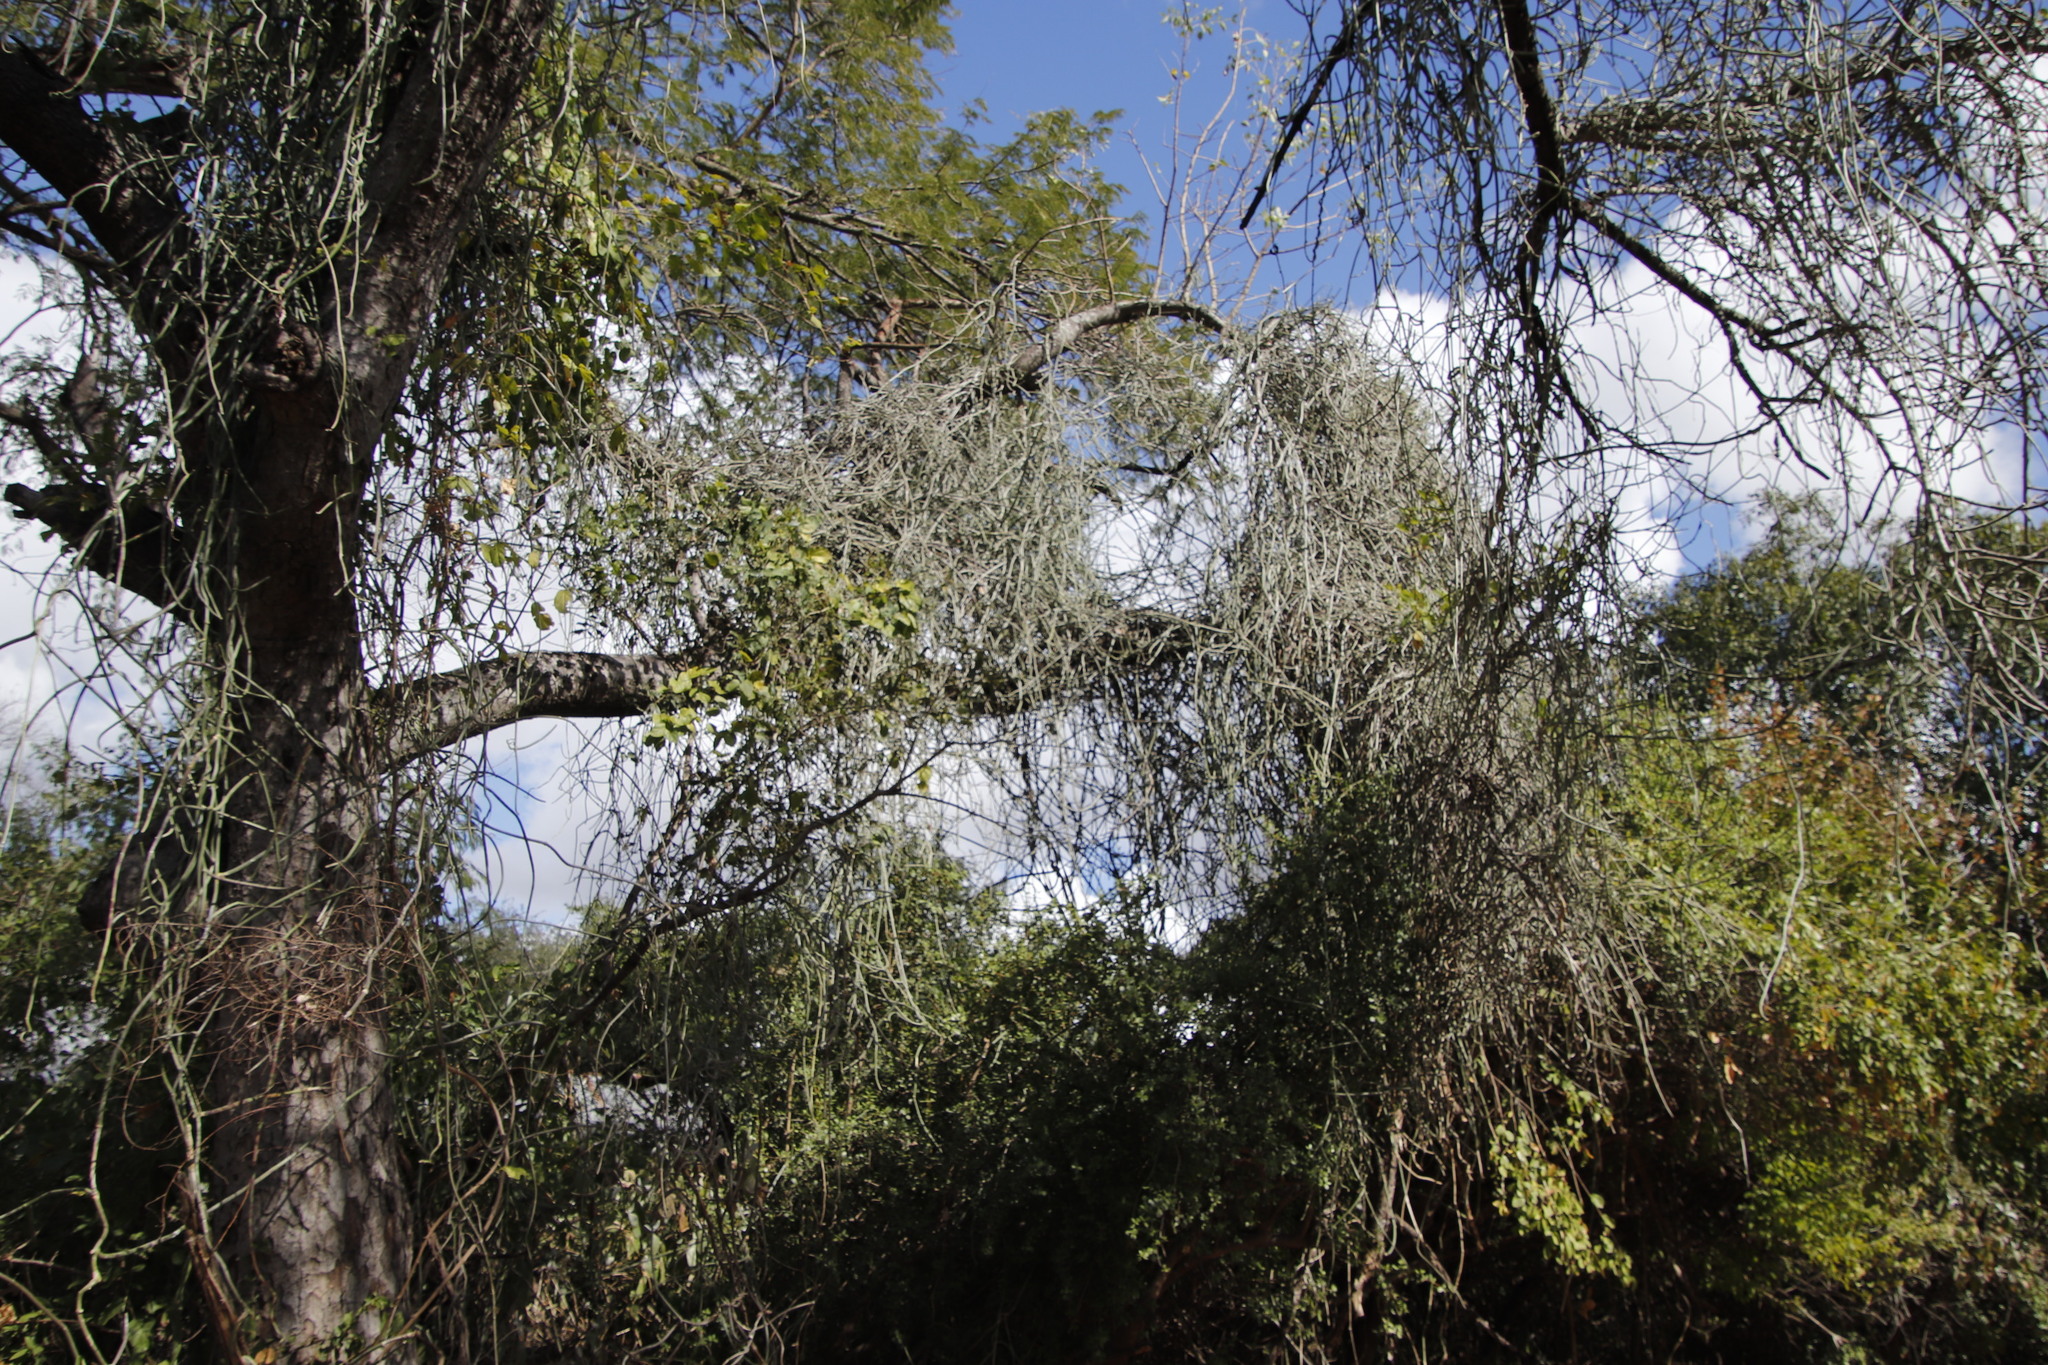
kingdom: Plantae
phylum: Tracheophyta
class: Magnoliopsida
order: Sapindales
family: Anacardiaceae
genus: Sclerocarya
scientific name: Sclerocarya birrea
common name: Marula
